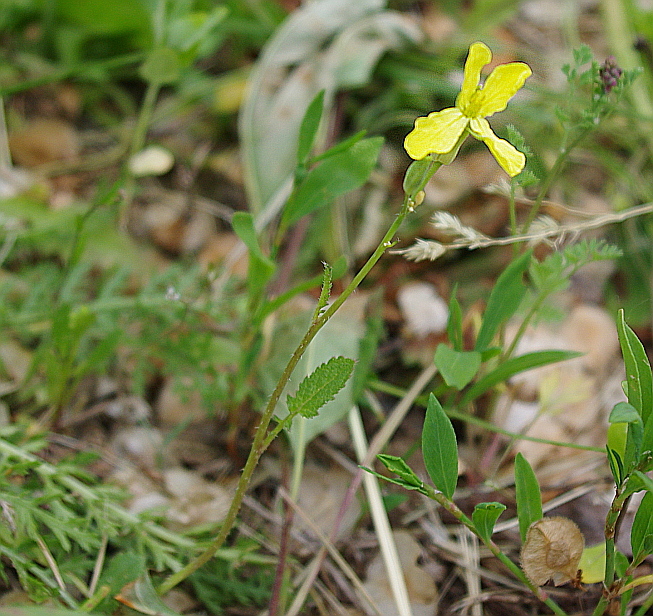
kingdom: Plantae
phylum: Tracheophyta
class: Magnoliopsida
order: Brassicales
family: Brassicaceae
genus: Raphanus
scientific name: Raphanus raphanistrum
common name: Wild radish
